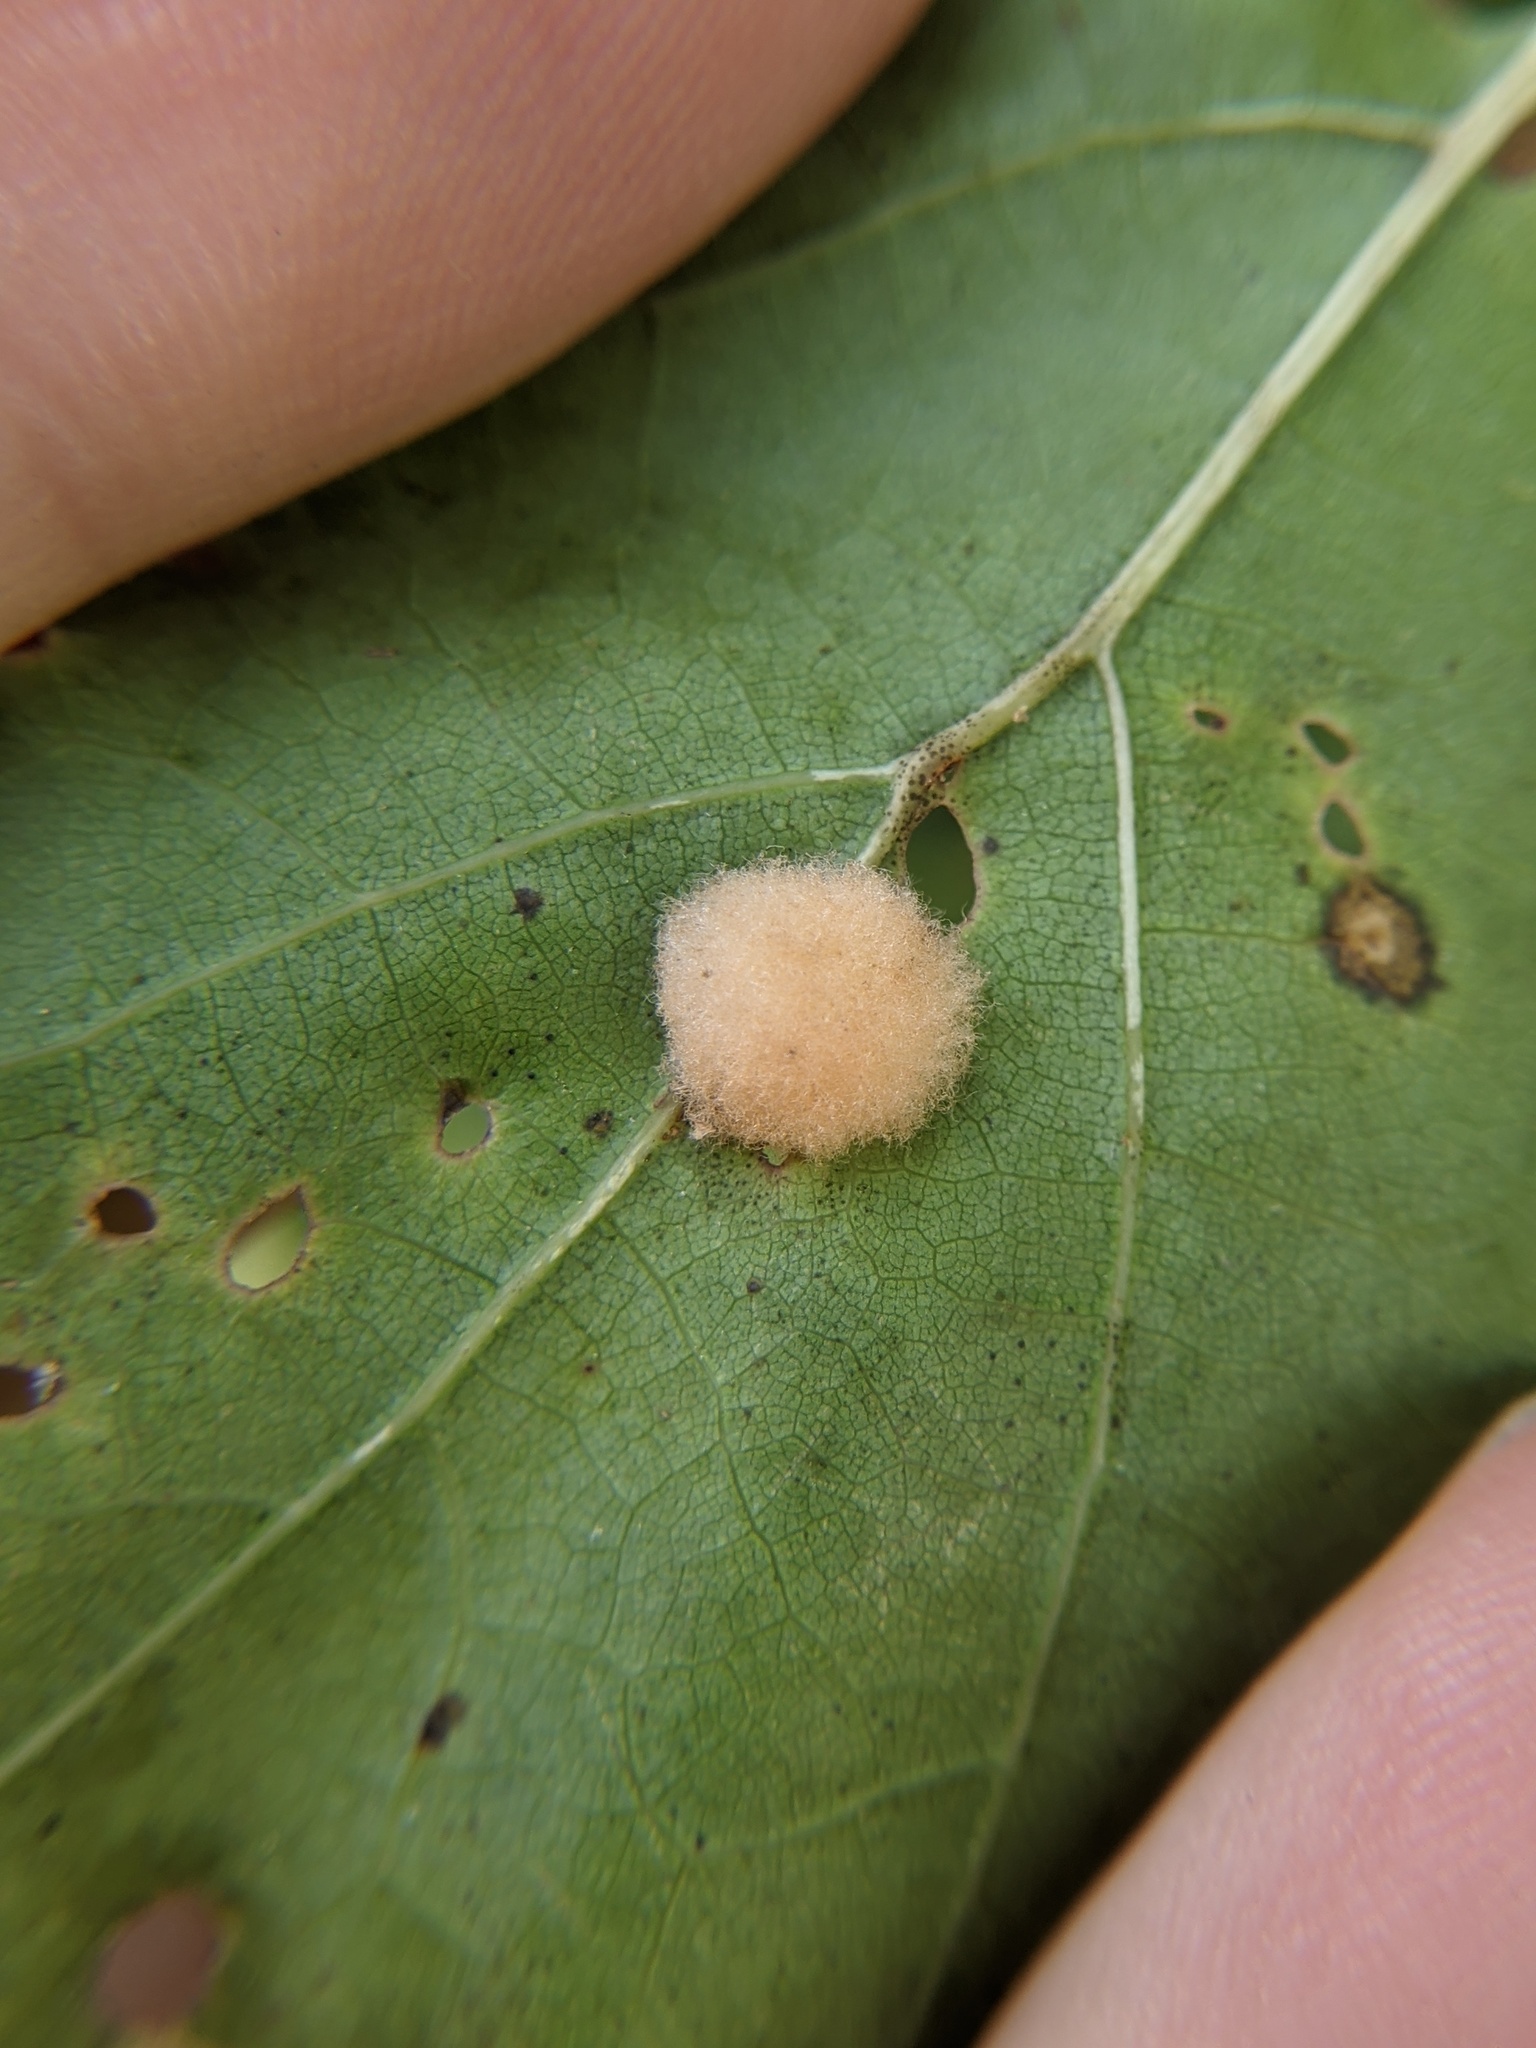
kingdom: Animalia
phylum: Arthropoda
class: Insecta
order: Hymenoptera
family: Cynipidae
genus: Callirhytis
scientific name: Callirhytis
